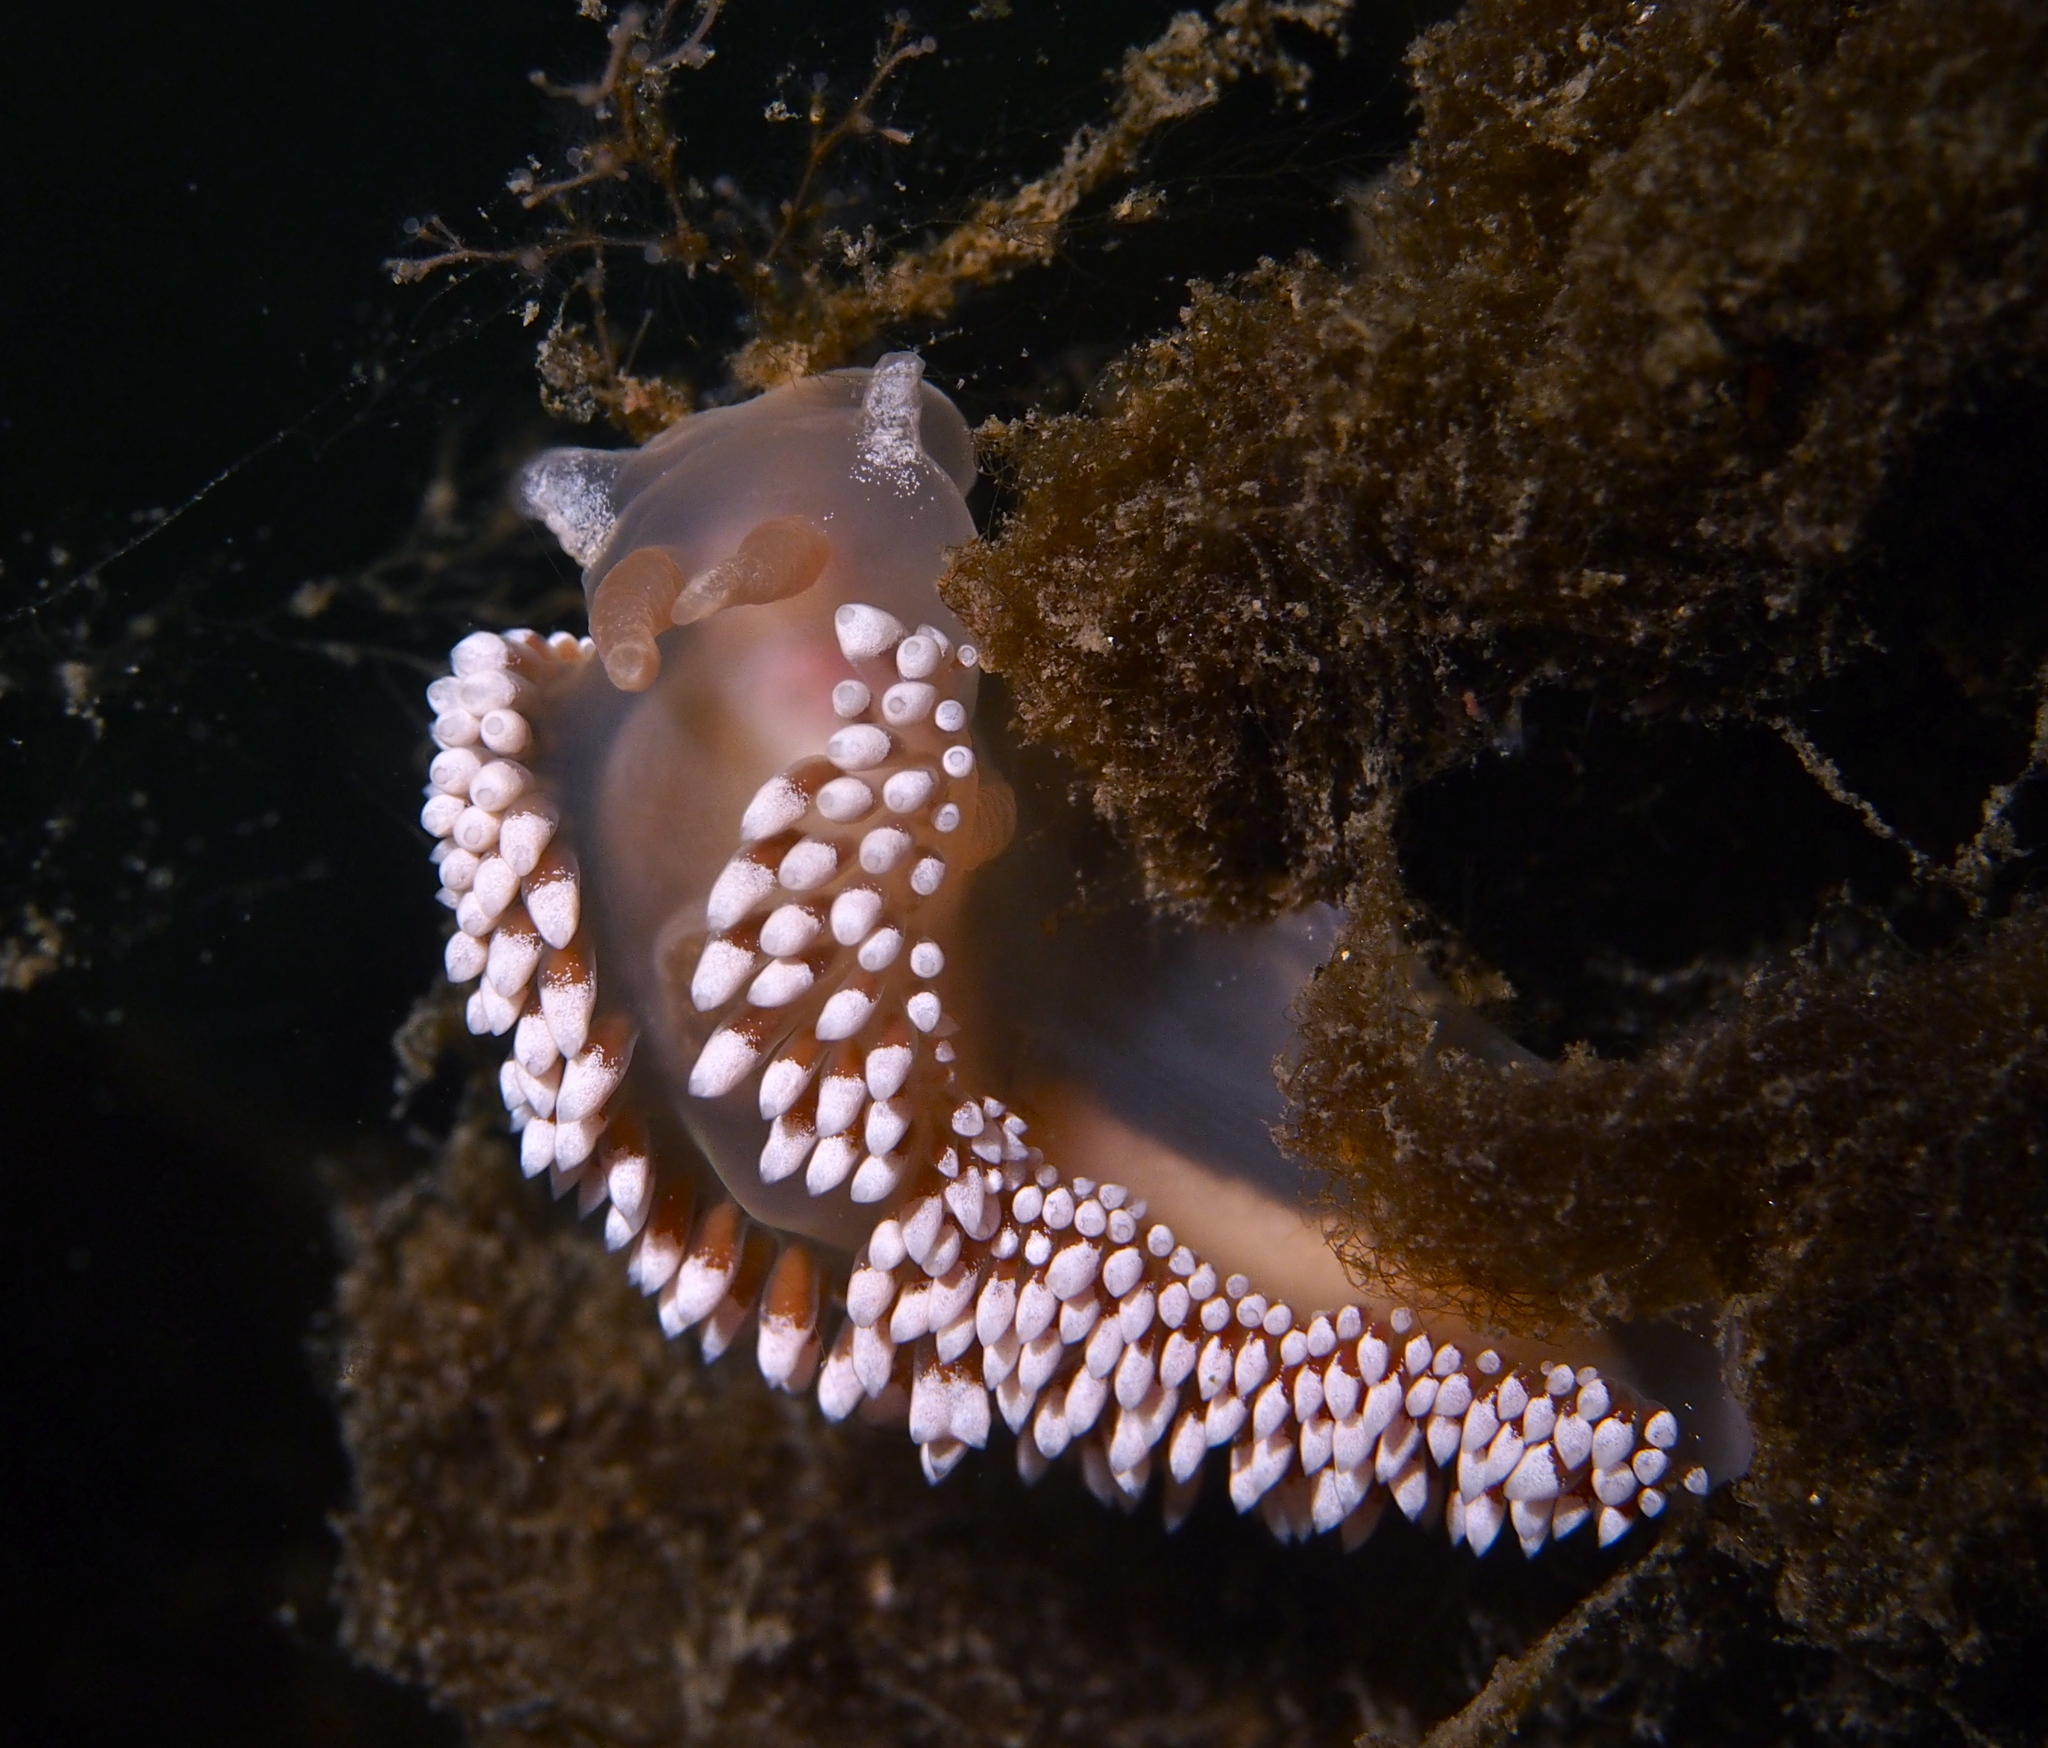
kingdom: Animalia
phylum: Mollusca
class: Gastropoda
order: Nudibranchia
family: Coryphellidae
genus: Coryphella
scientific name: Coryphella verrucosa
